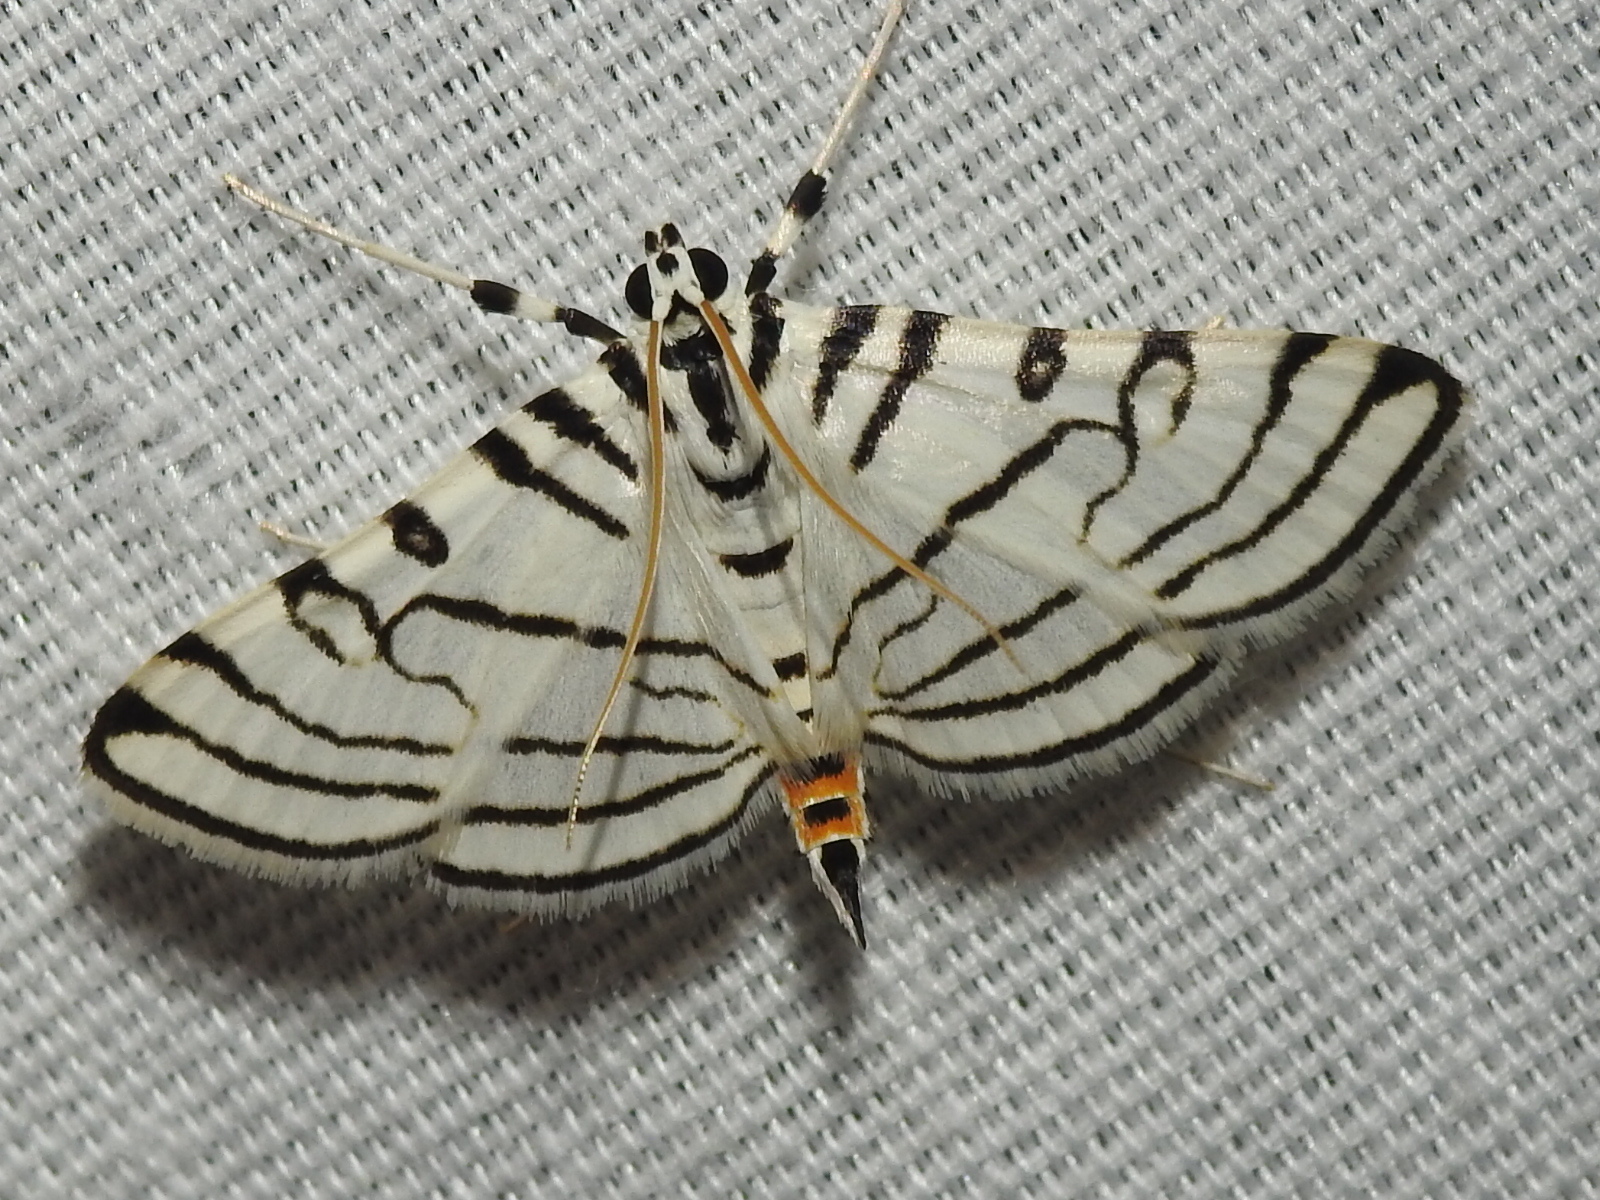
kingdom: Animalia
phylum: Arthropoda
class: Insecta
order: Lepidoptera
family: Crambidae
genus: Conchylodes
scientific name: Conchylodes concinnalis
